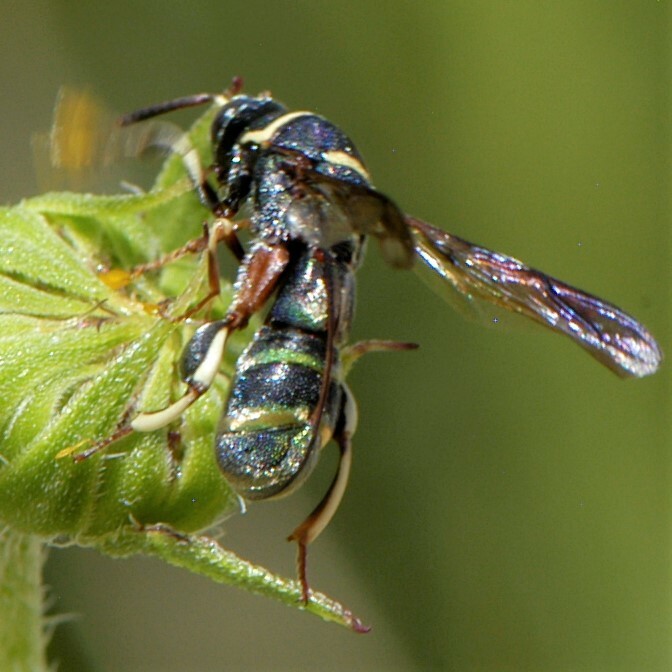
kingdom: Animalia
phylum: Arthropoda
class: Insecta
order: Hymenoptera
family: Leucospidae
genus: Leucospis
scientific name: Leucospis birkmani
